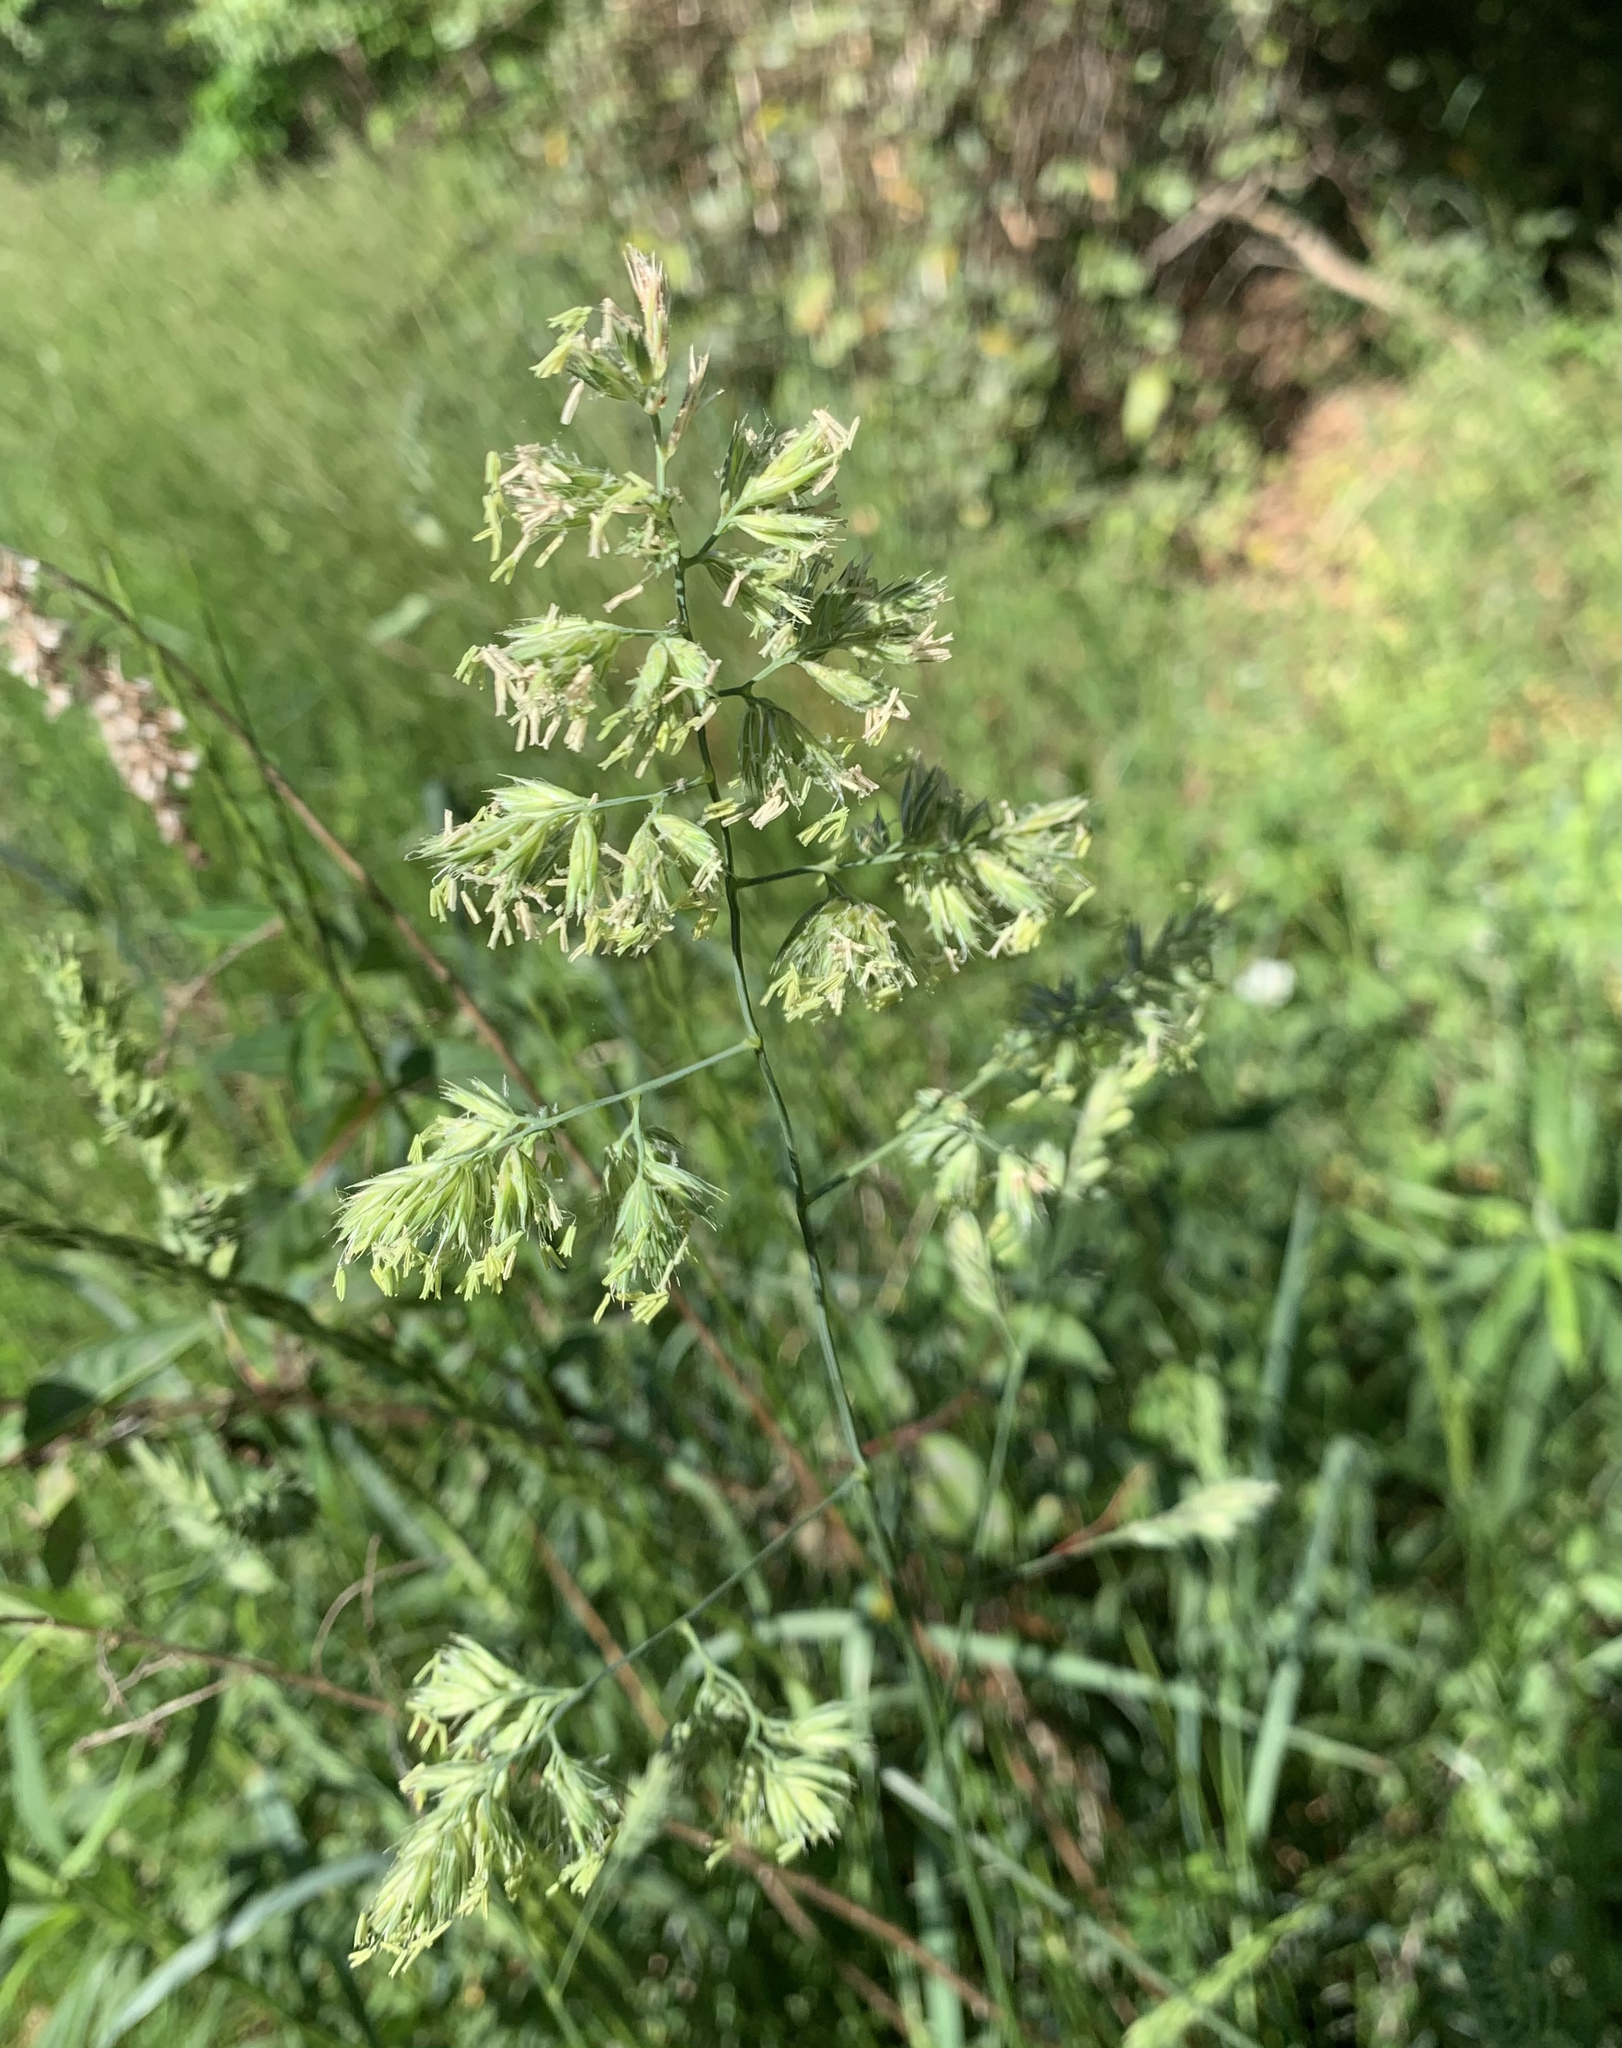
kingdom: Plantae
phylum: Tracheophyta
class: Liliopsida
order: Poales
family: Poaceae
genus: Dactylis
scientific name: Dactylis glomerata
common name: Orchardgrass
